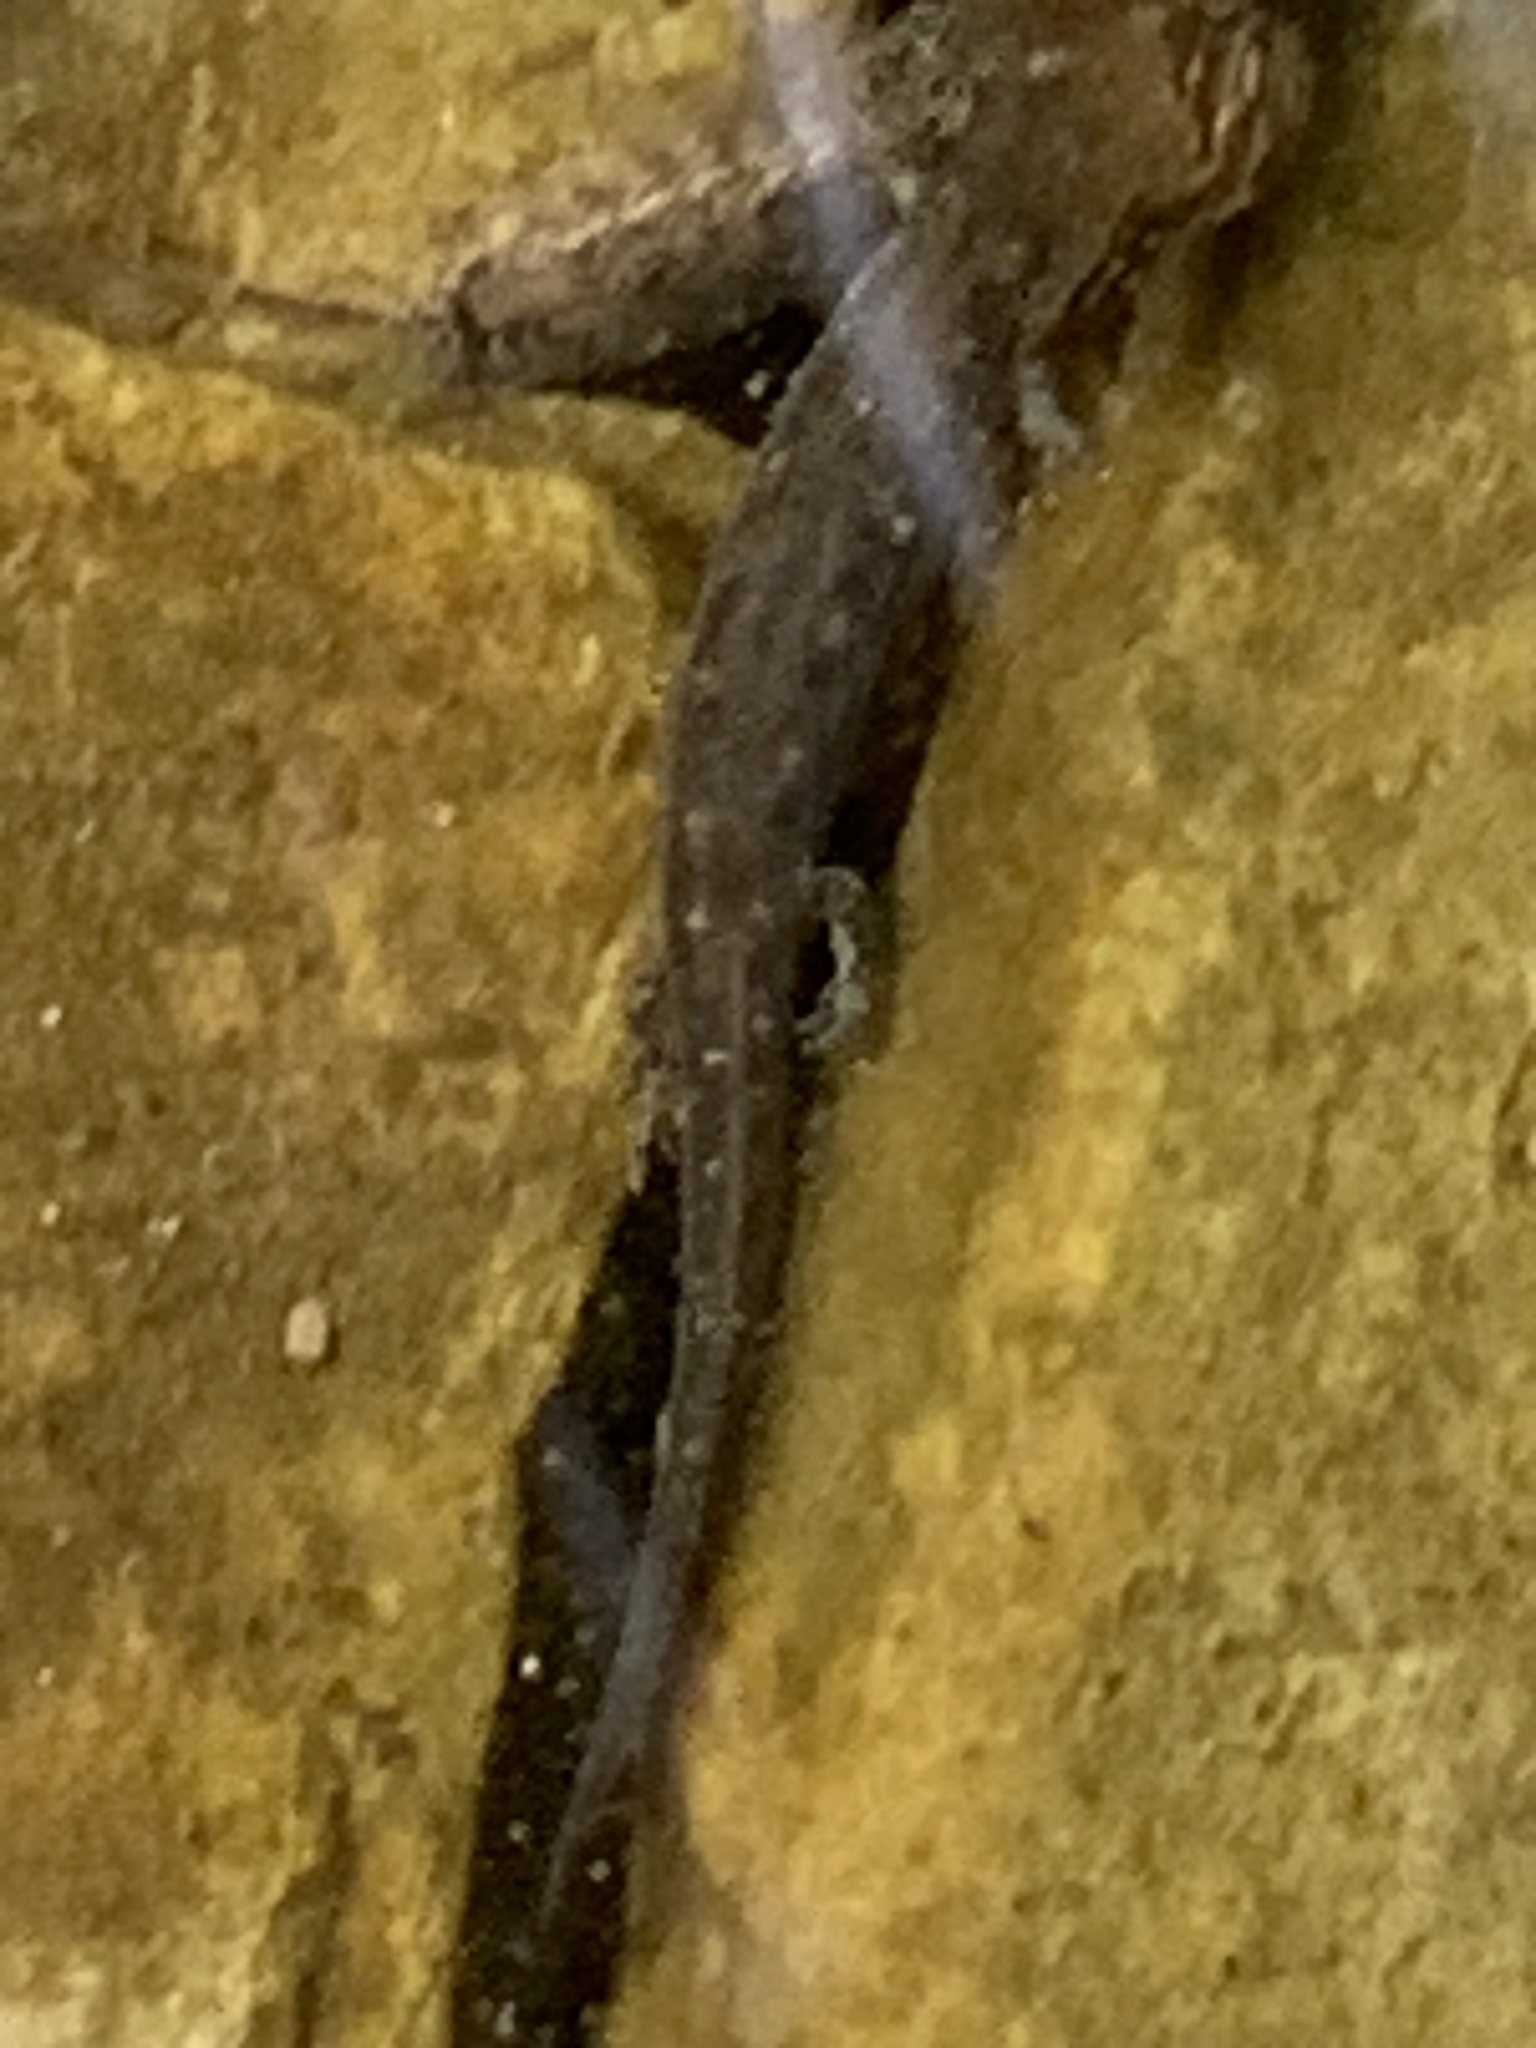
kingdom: Animalia
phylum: Chordata
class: Amphibia
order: Caudata
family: Plethodontidae
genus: Eurycea
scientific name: Eurycea cirrigera
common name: Southern two-lined salamander
